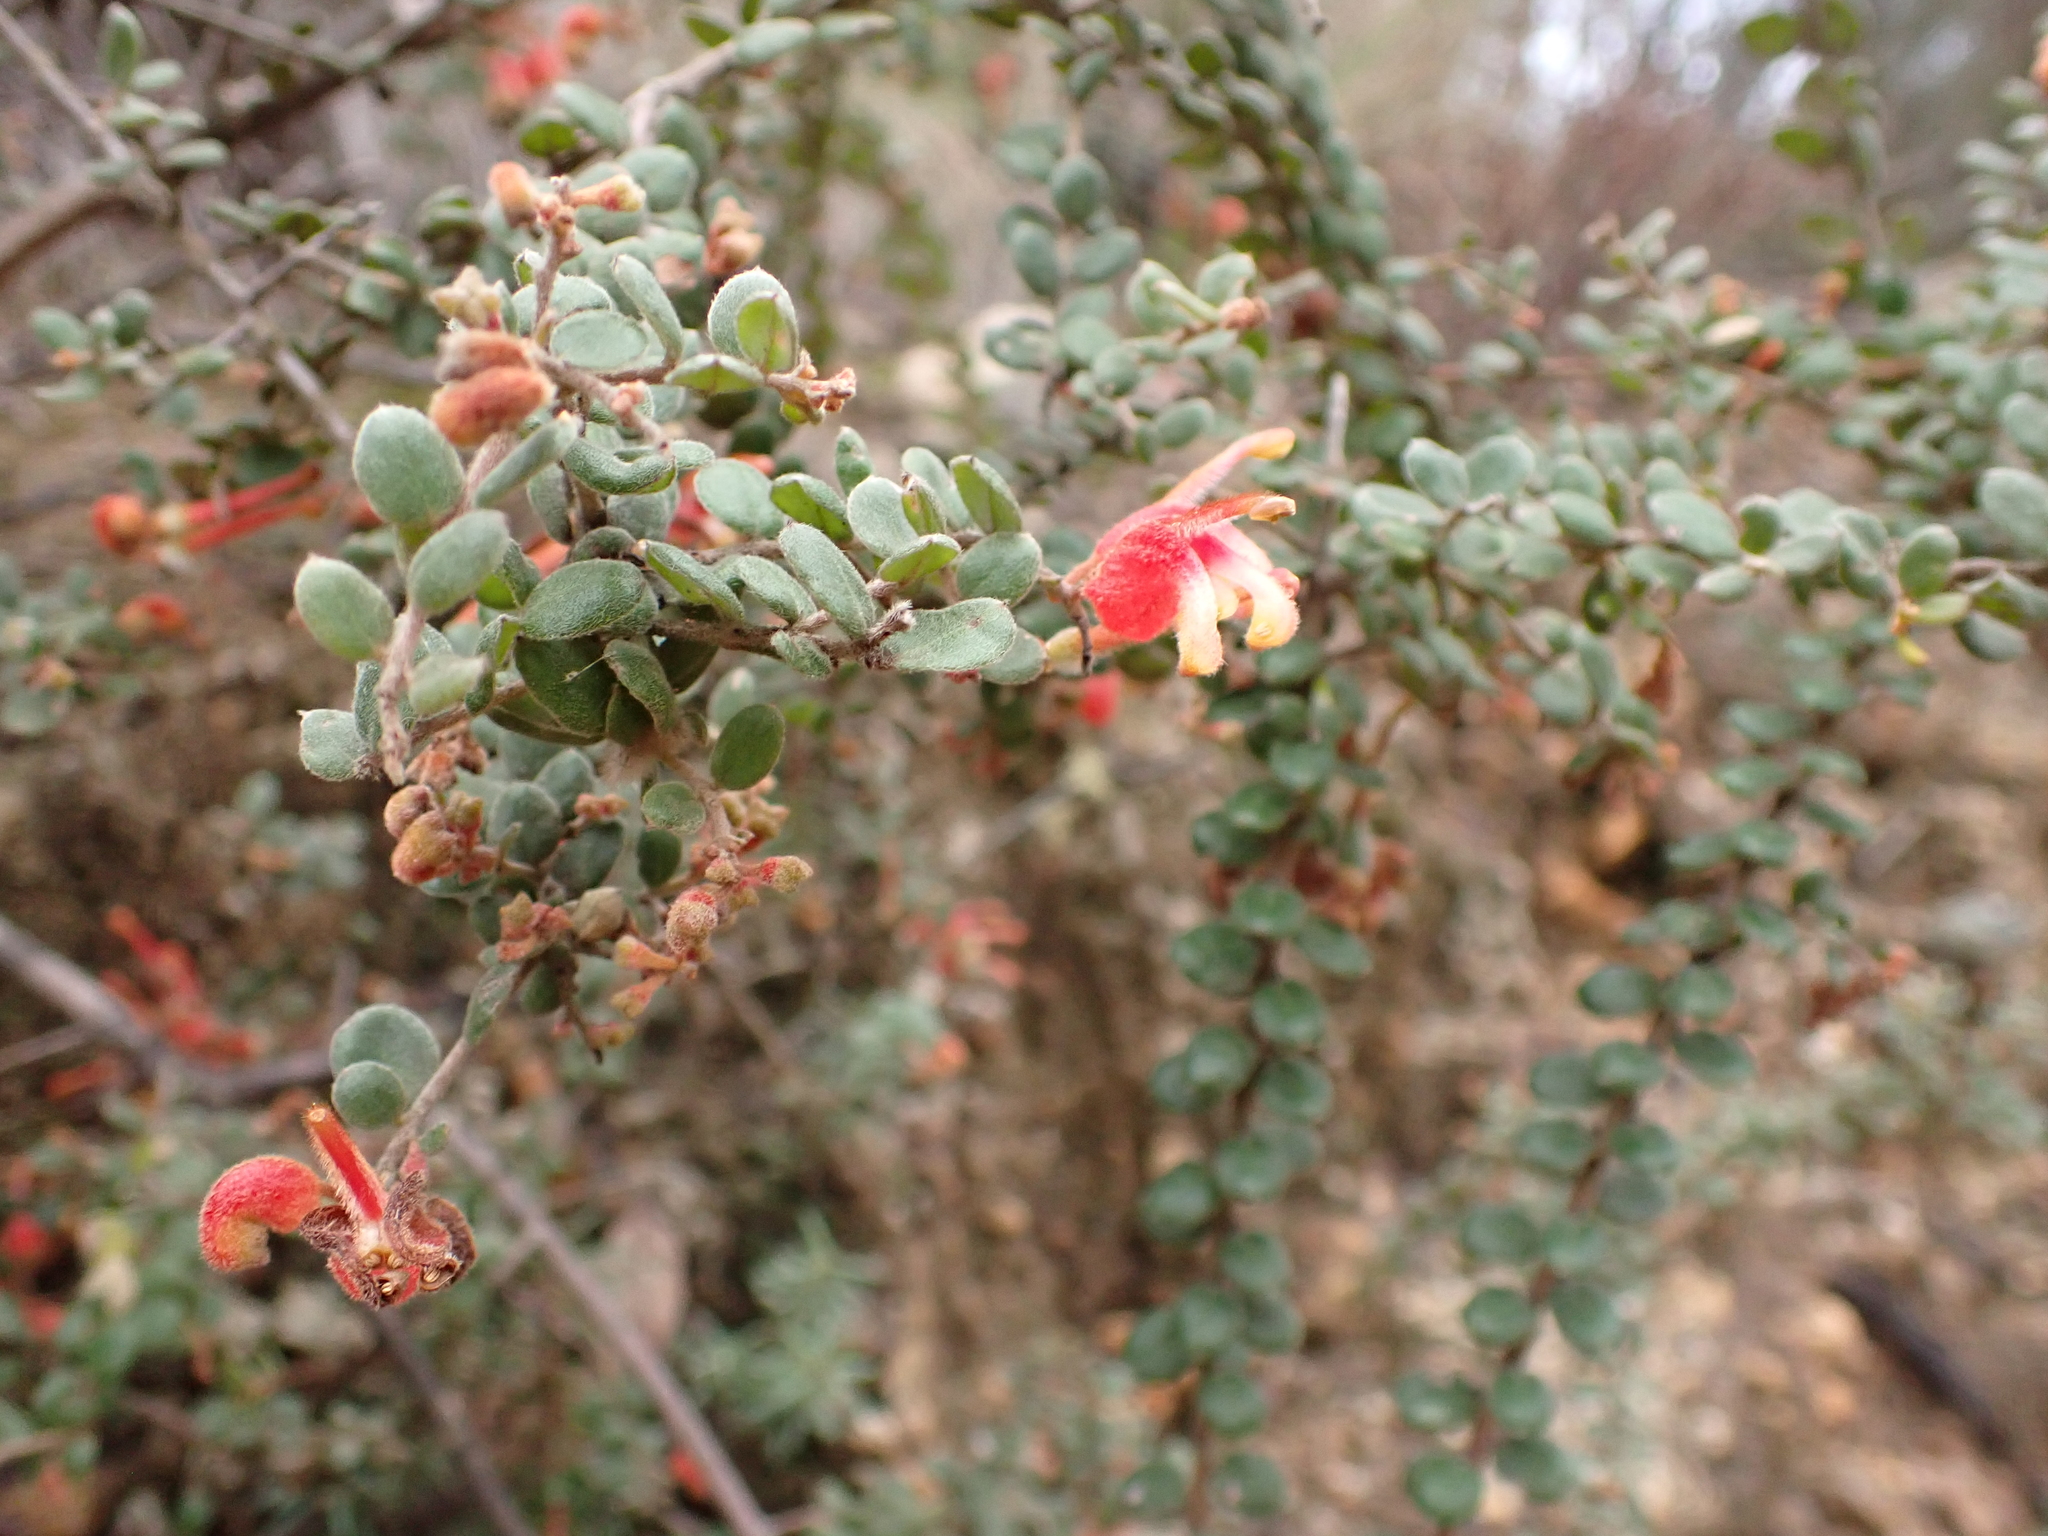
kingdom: Plantae
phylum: Tracheophyta
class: Magnoliopsida
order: Proteales
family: Proteaceae
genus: Grevillea
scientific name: Grevillea alpina
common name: Catclaws grevillea
